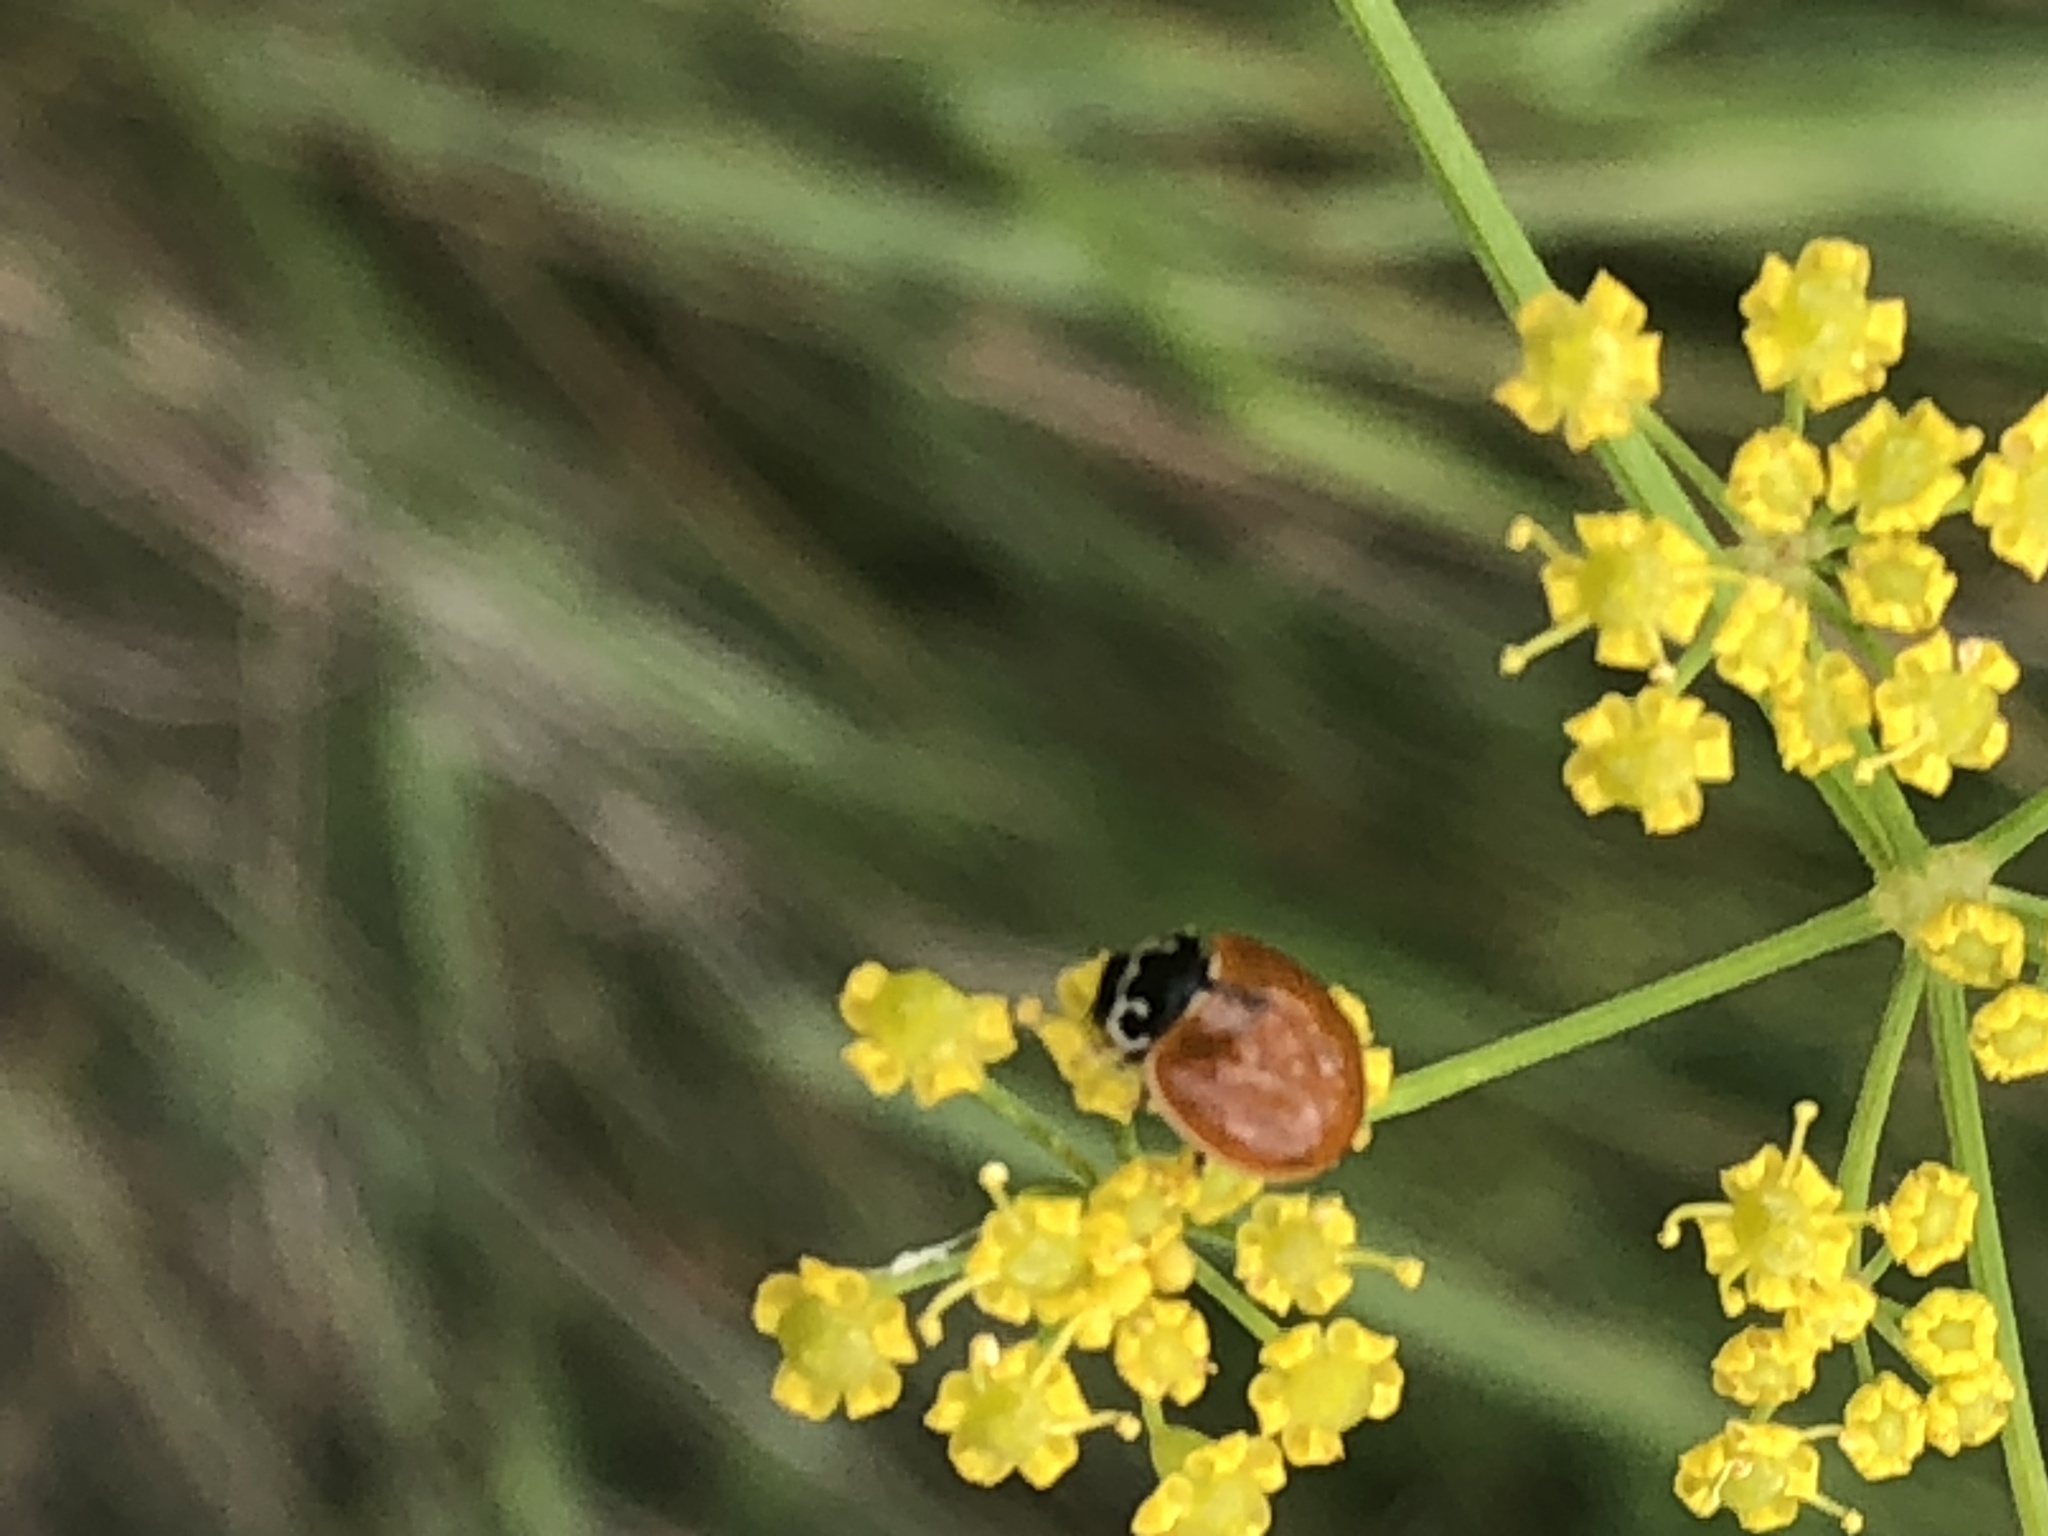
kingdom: Animalia
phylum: Arthropoda
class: Insecta
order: Coleoptera
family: Coccinellidae
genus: Cycloneda
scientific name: Cycloneda munda
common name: Polished lady beetle
